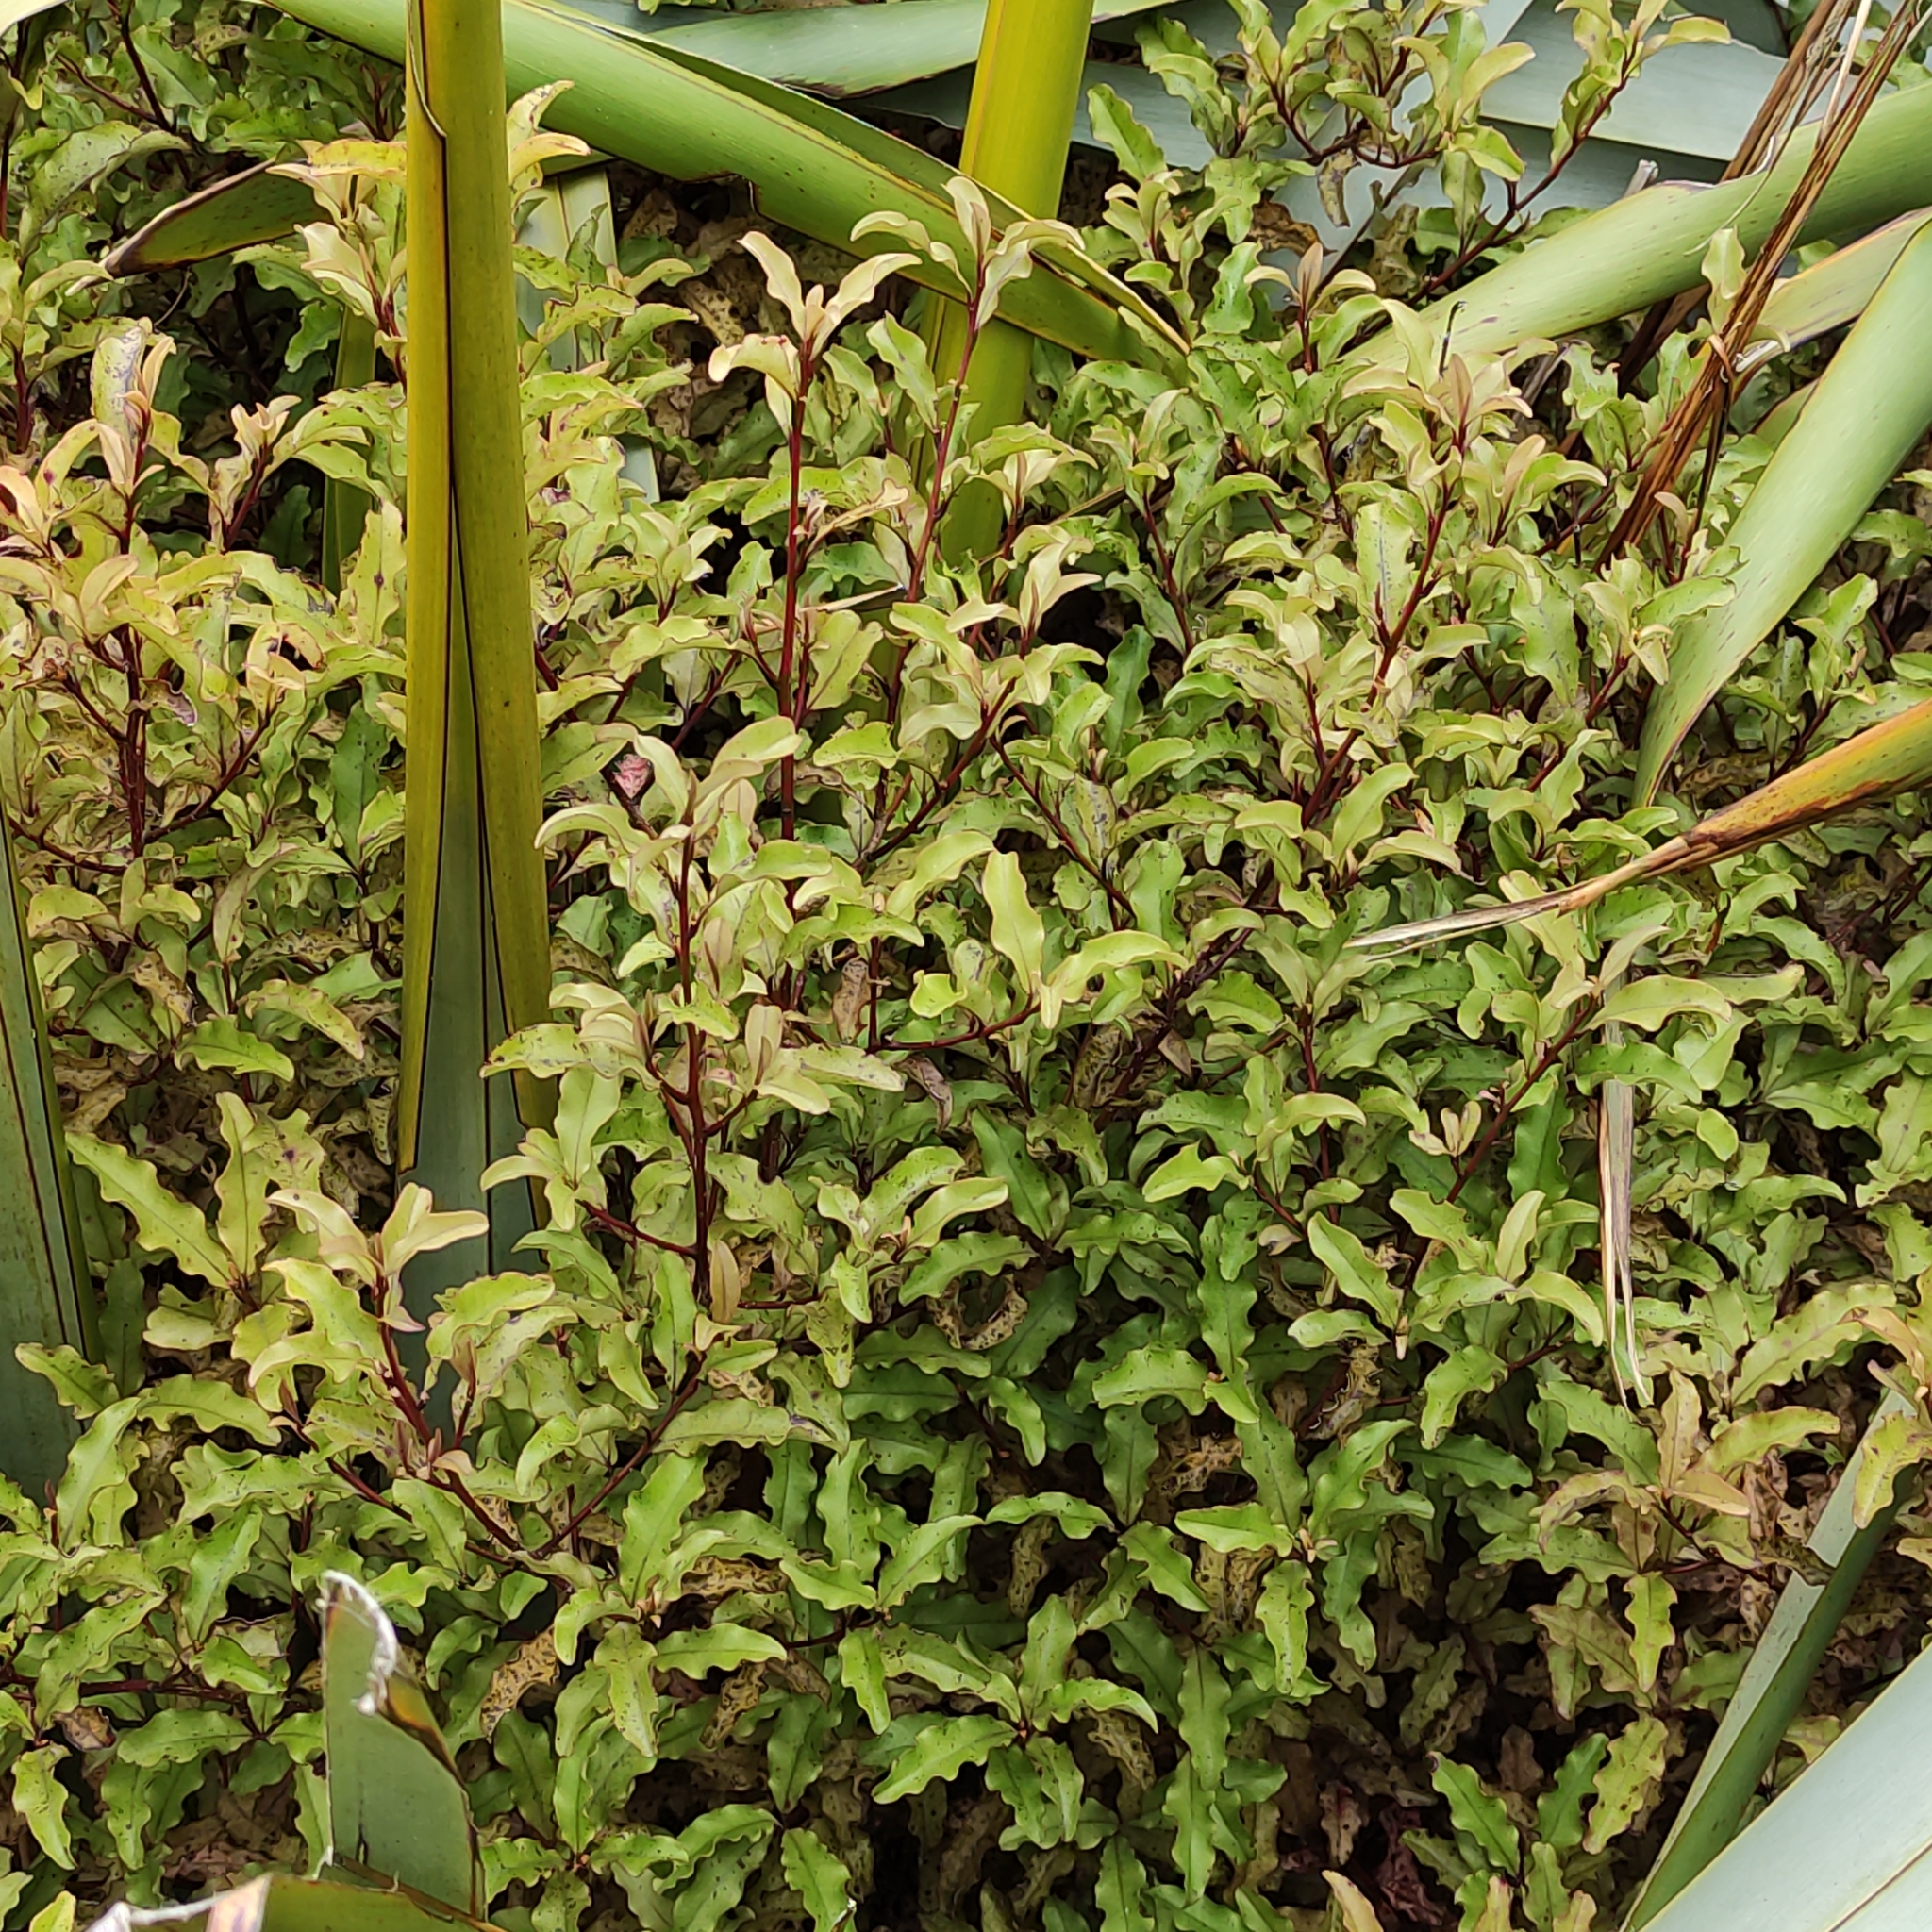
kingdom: Plantae
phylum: Tracheophyta
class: Magnoliopsida
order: Ericales
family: Primulaceae
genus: Myrsine
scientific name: Myrsine australis
